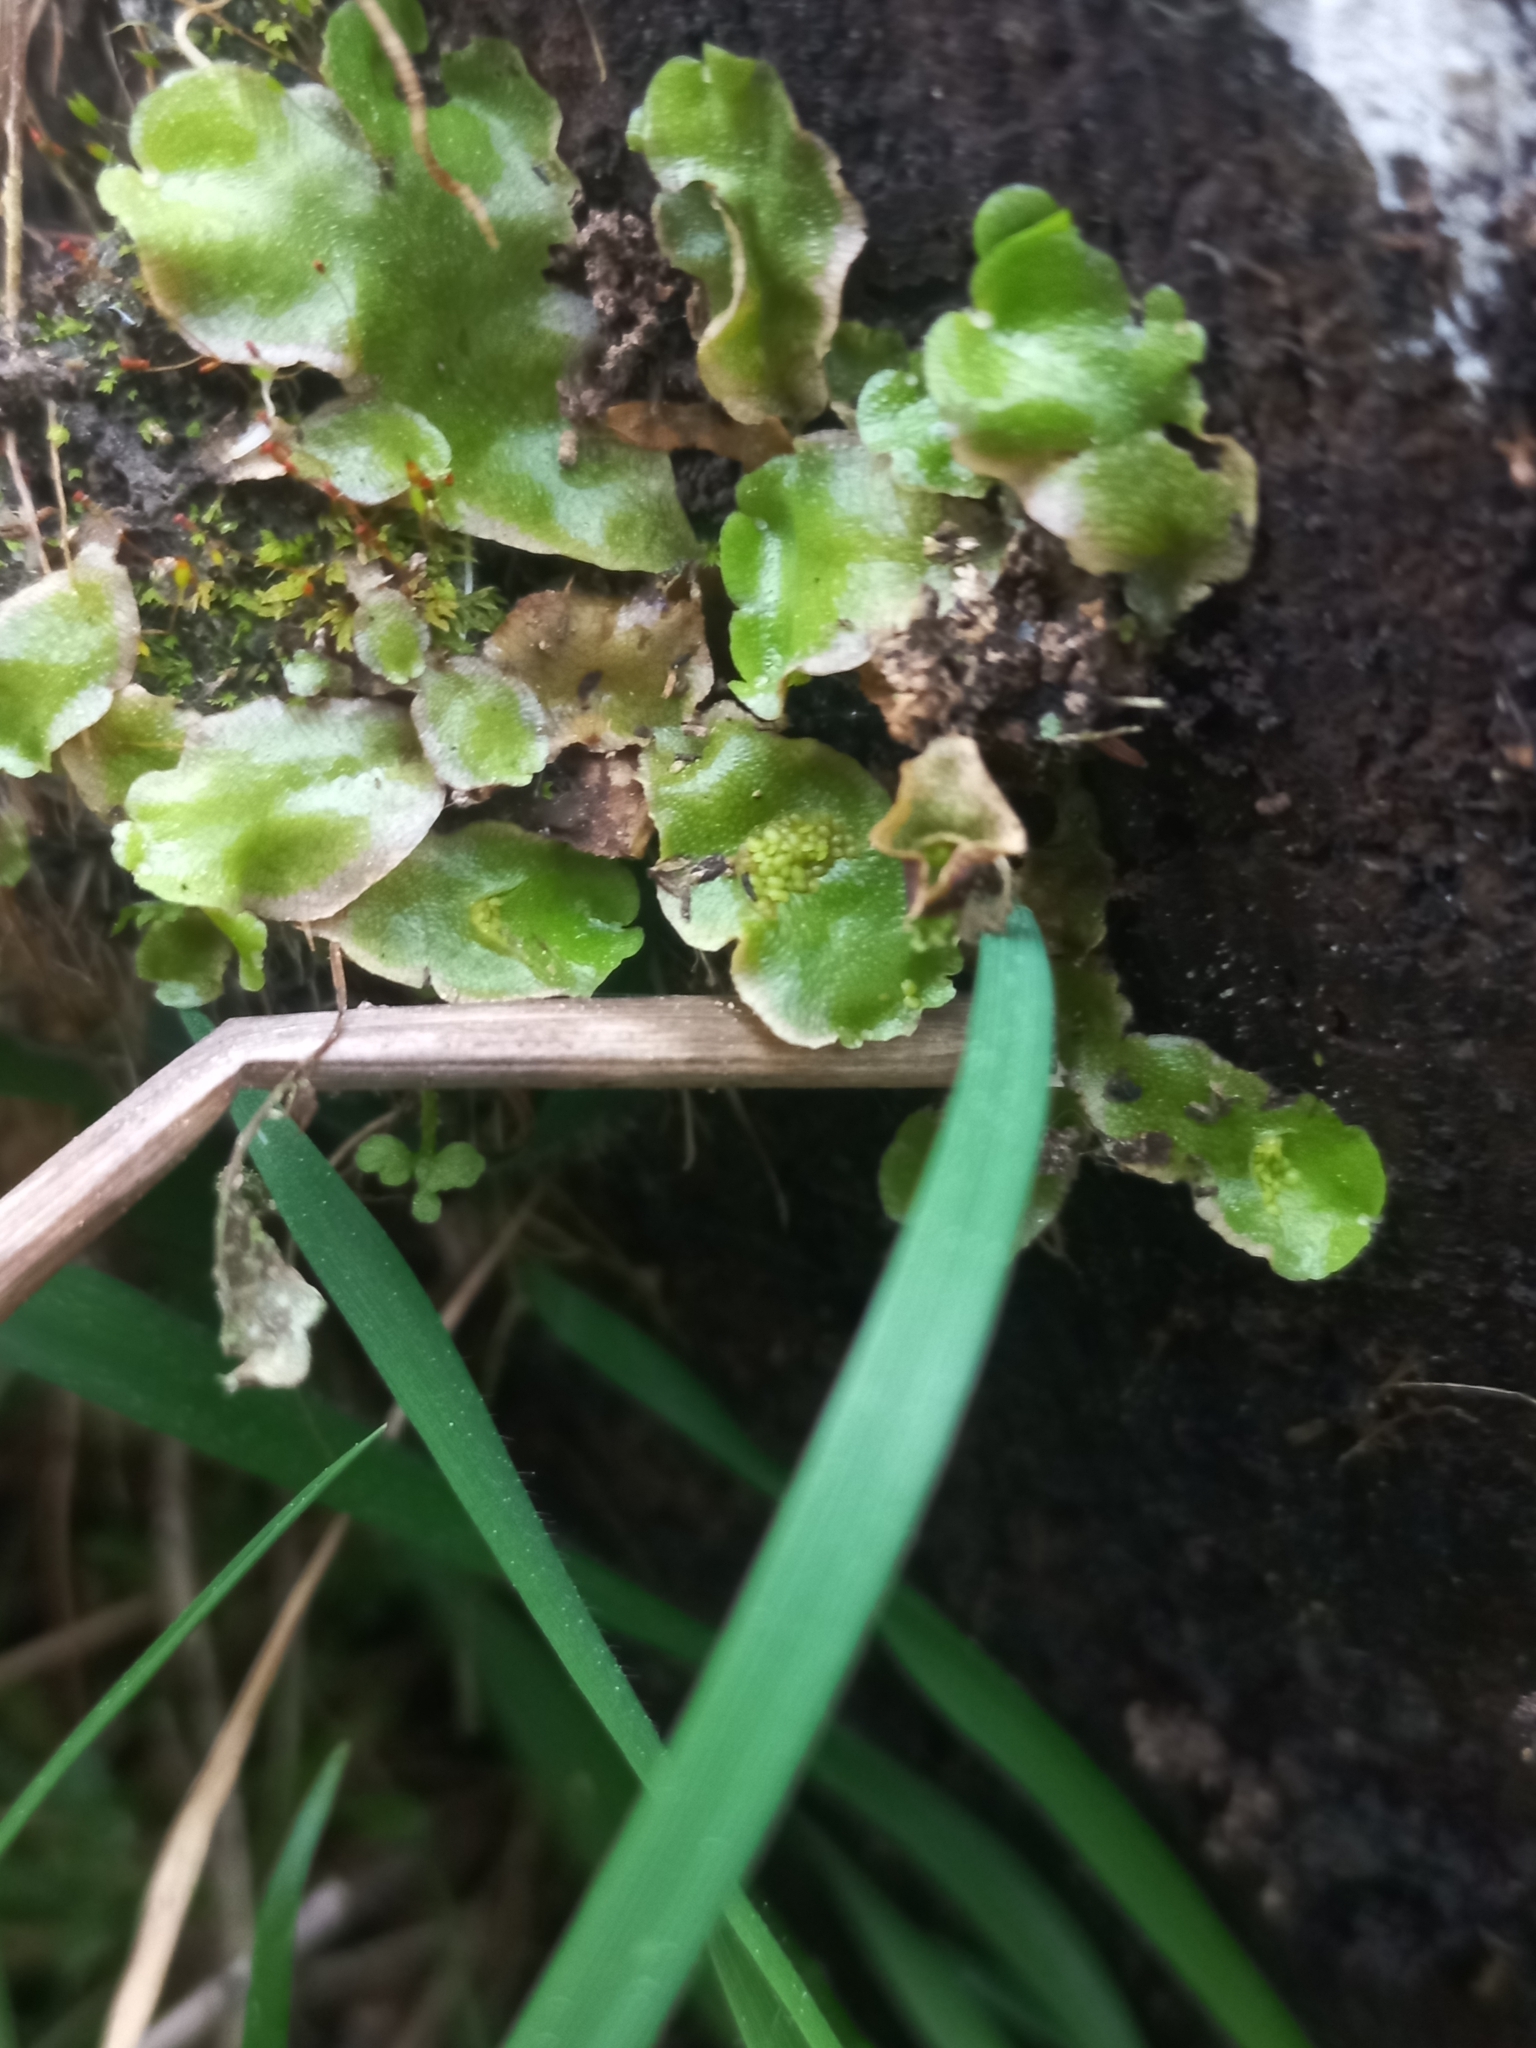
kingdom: Plantae
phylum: Marchantiophyta
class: Marchantiopsida
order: Lunulariales
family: Lunulariaceae
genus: Lunularia
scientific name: Lunularia cruciata
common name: Crescent-cup liverwort
